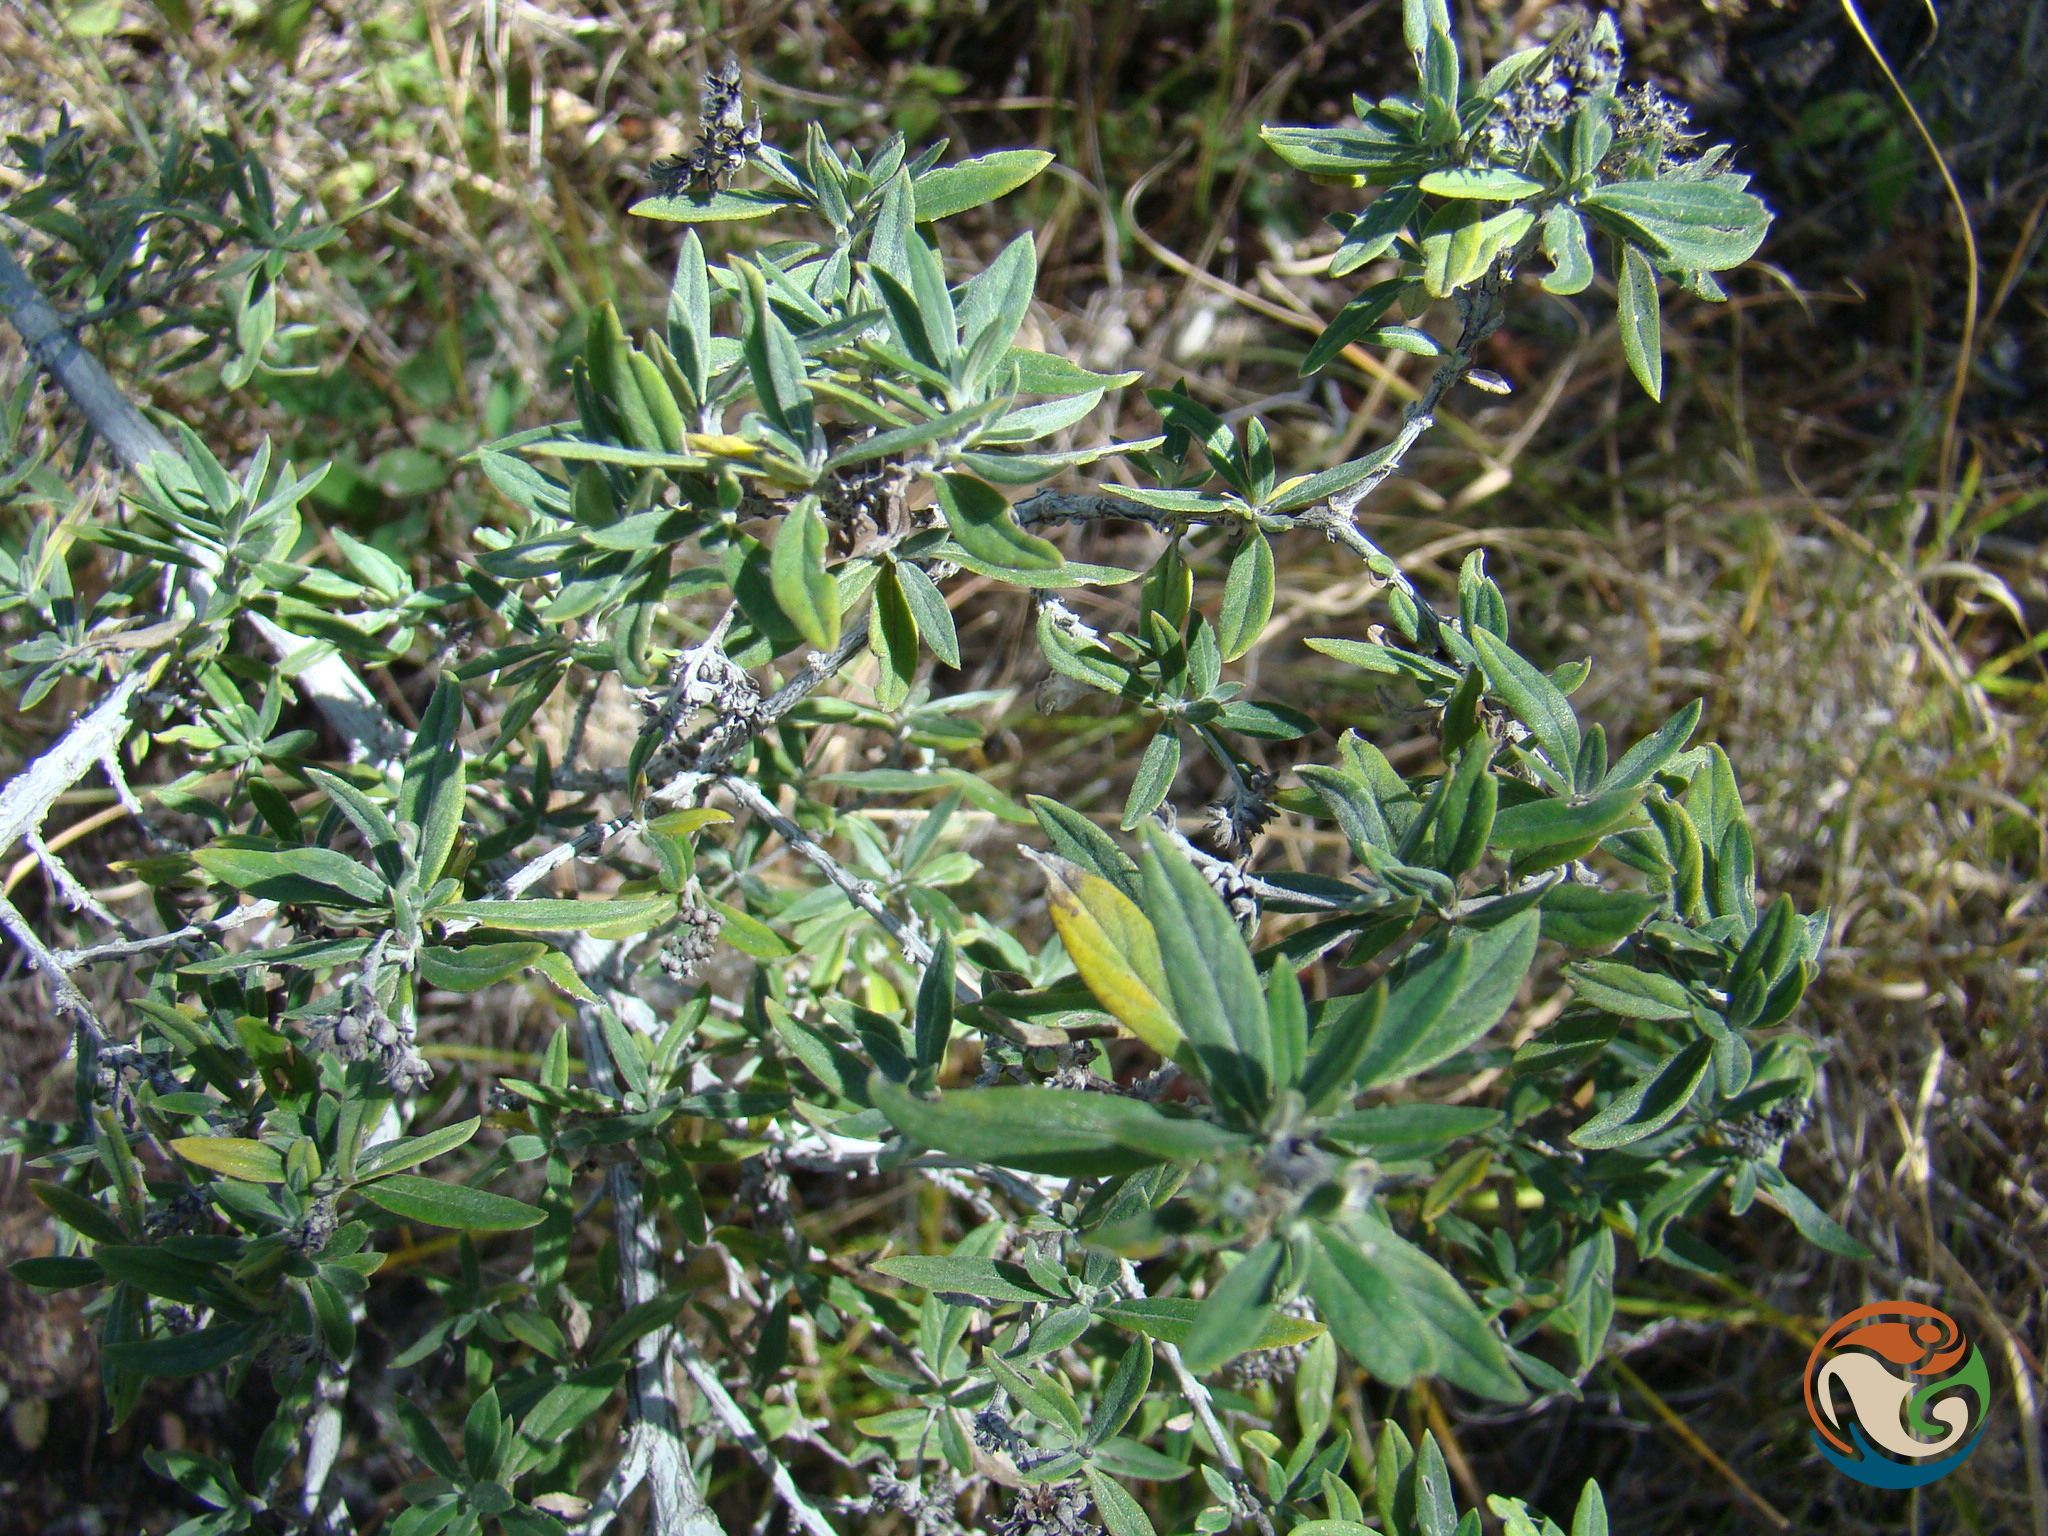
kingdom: Plantae
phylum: Tracheophyta
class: Magnoliopsida
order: Boraginales
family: Heliotropiaceae
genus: Euploca
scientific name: Euploca mexicana
